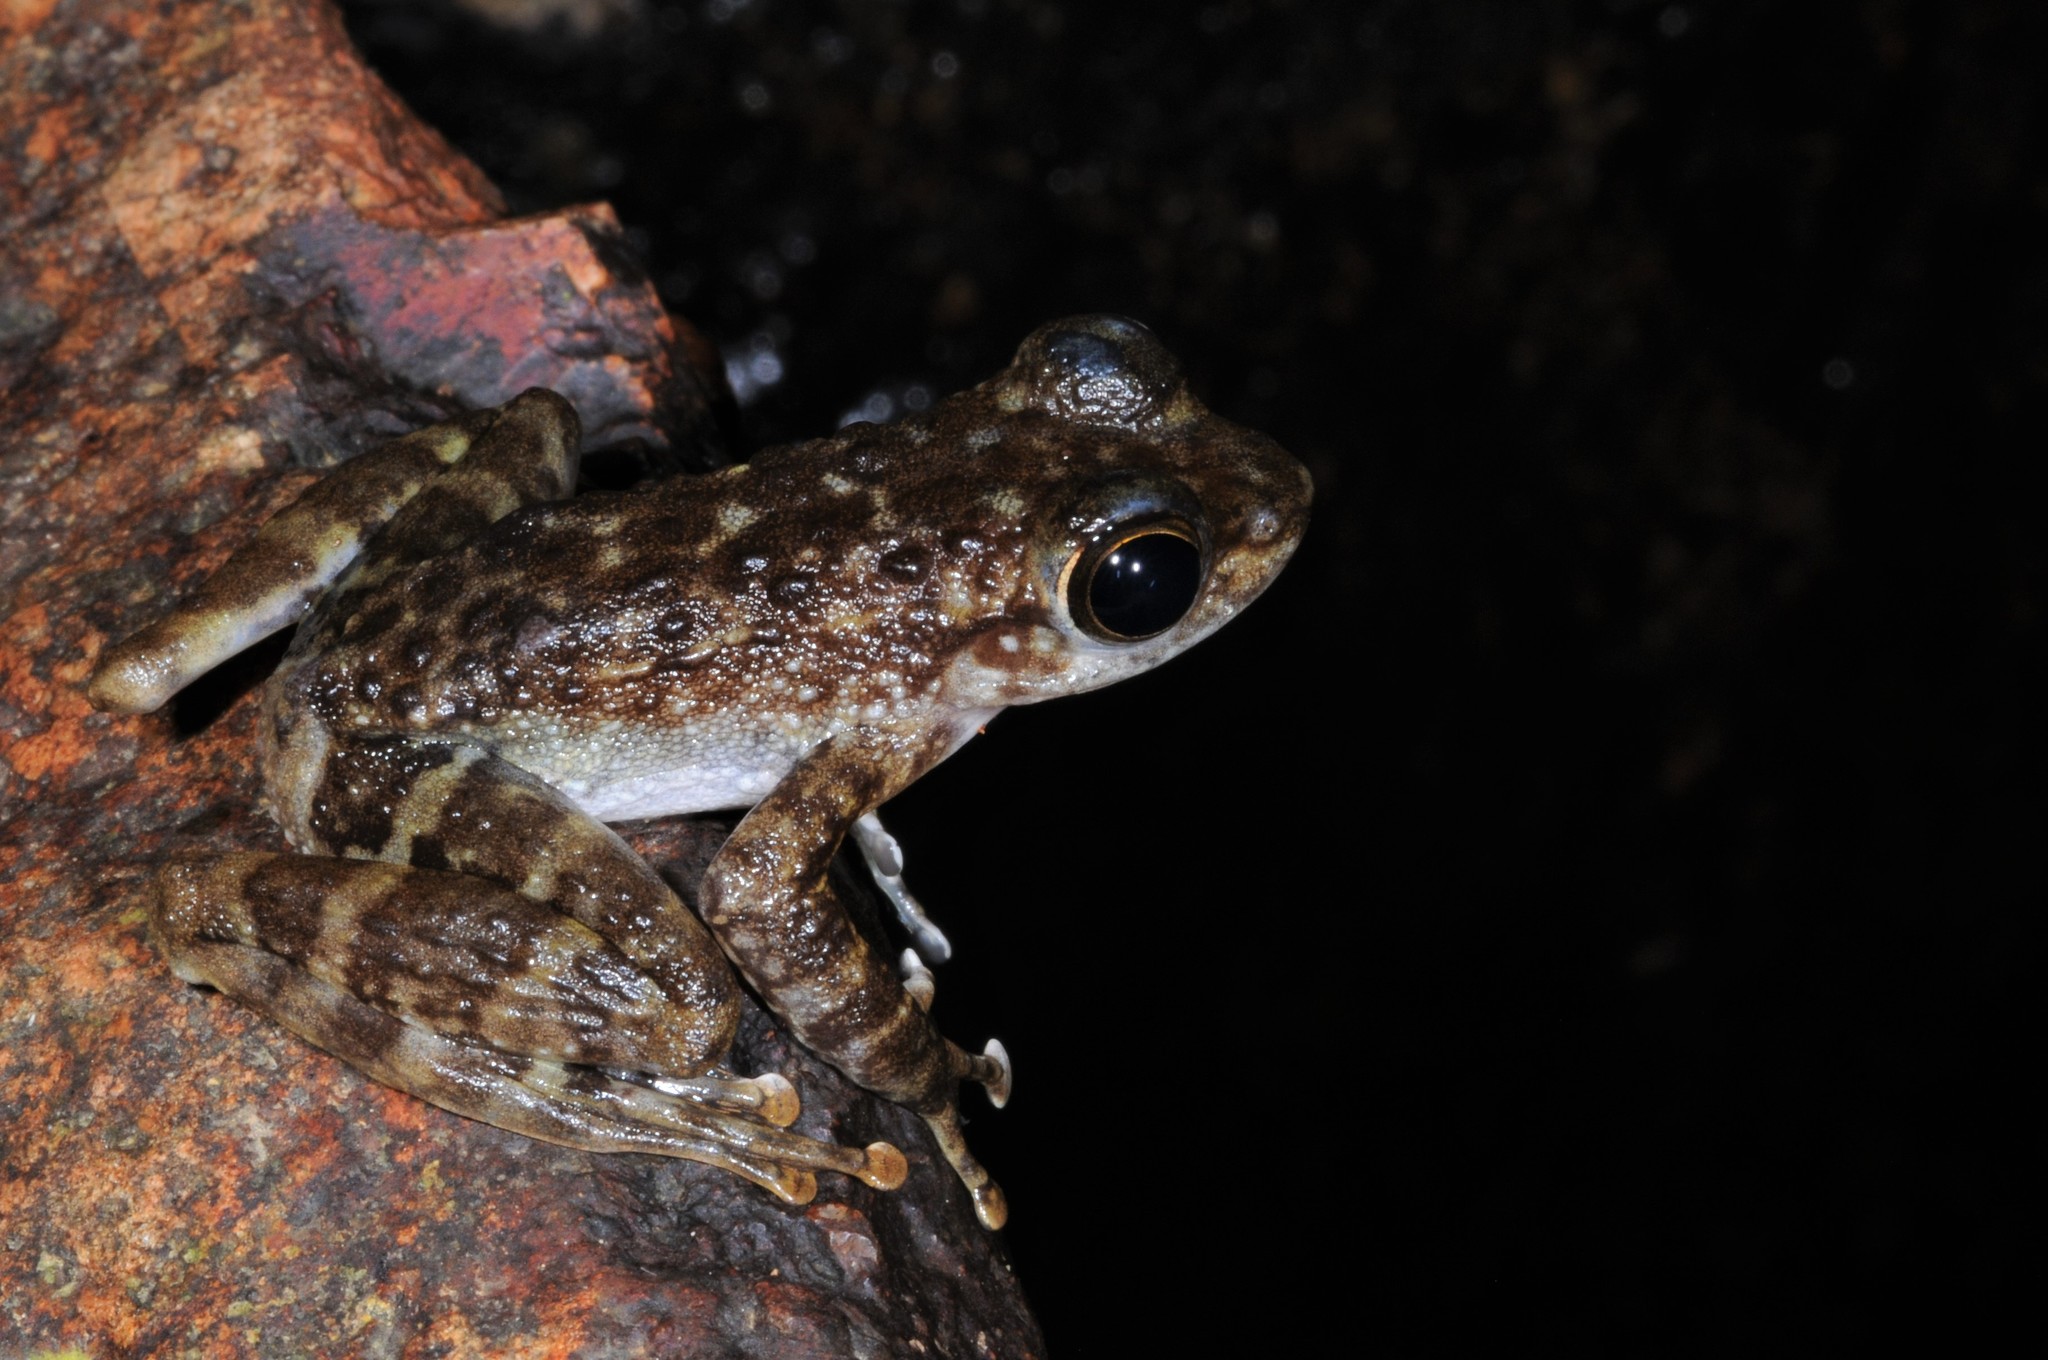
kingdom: Animalia
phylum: Chordata
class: Amphibia
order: Anura
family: Ranidae
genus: Amolops
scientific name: Amolops larutensis
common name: Larut sucker frog/torrent frog/southern pad-discked frog/larut hill cascade frog
